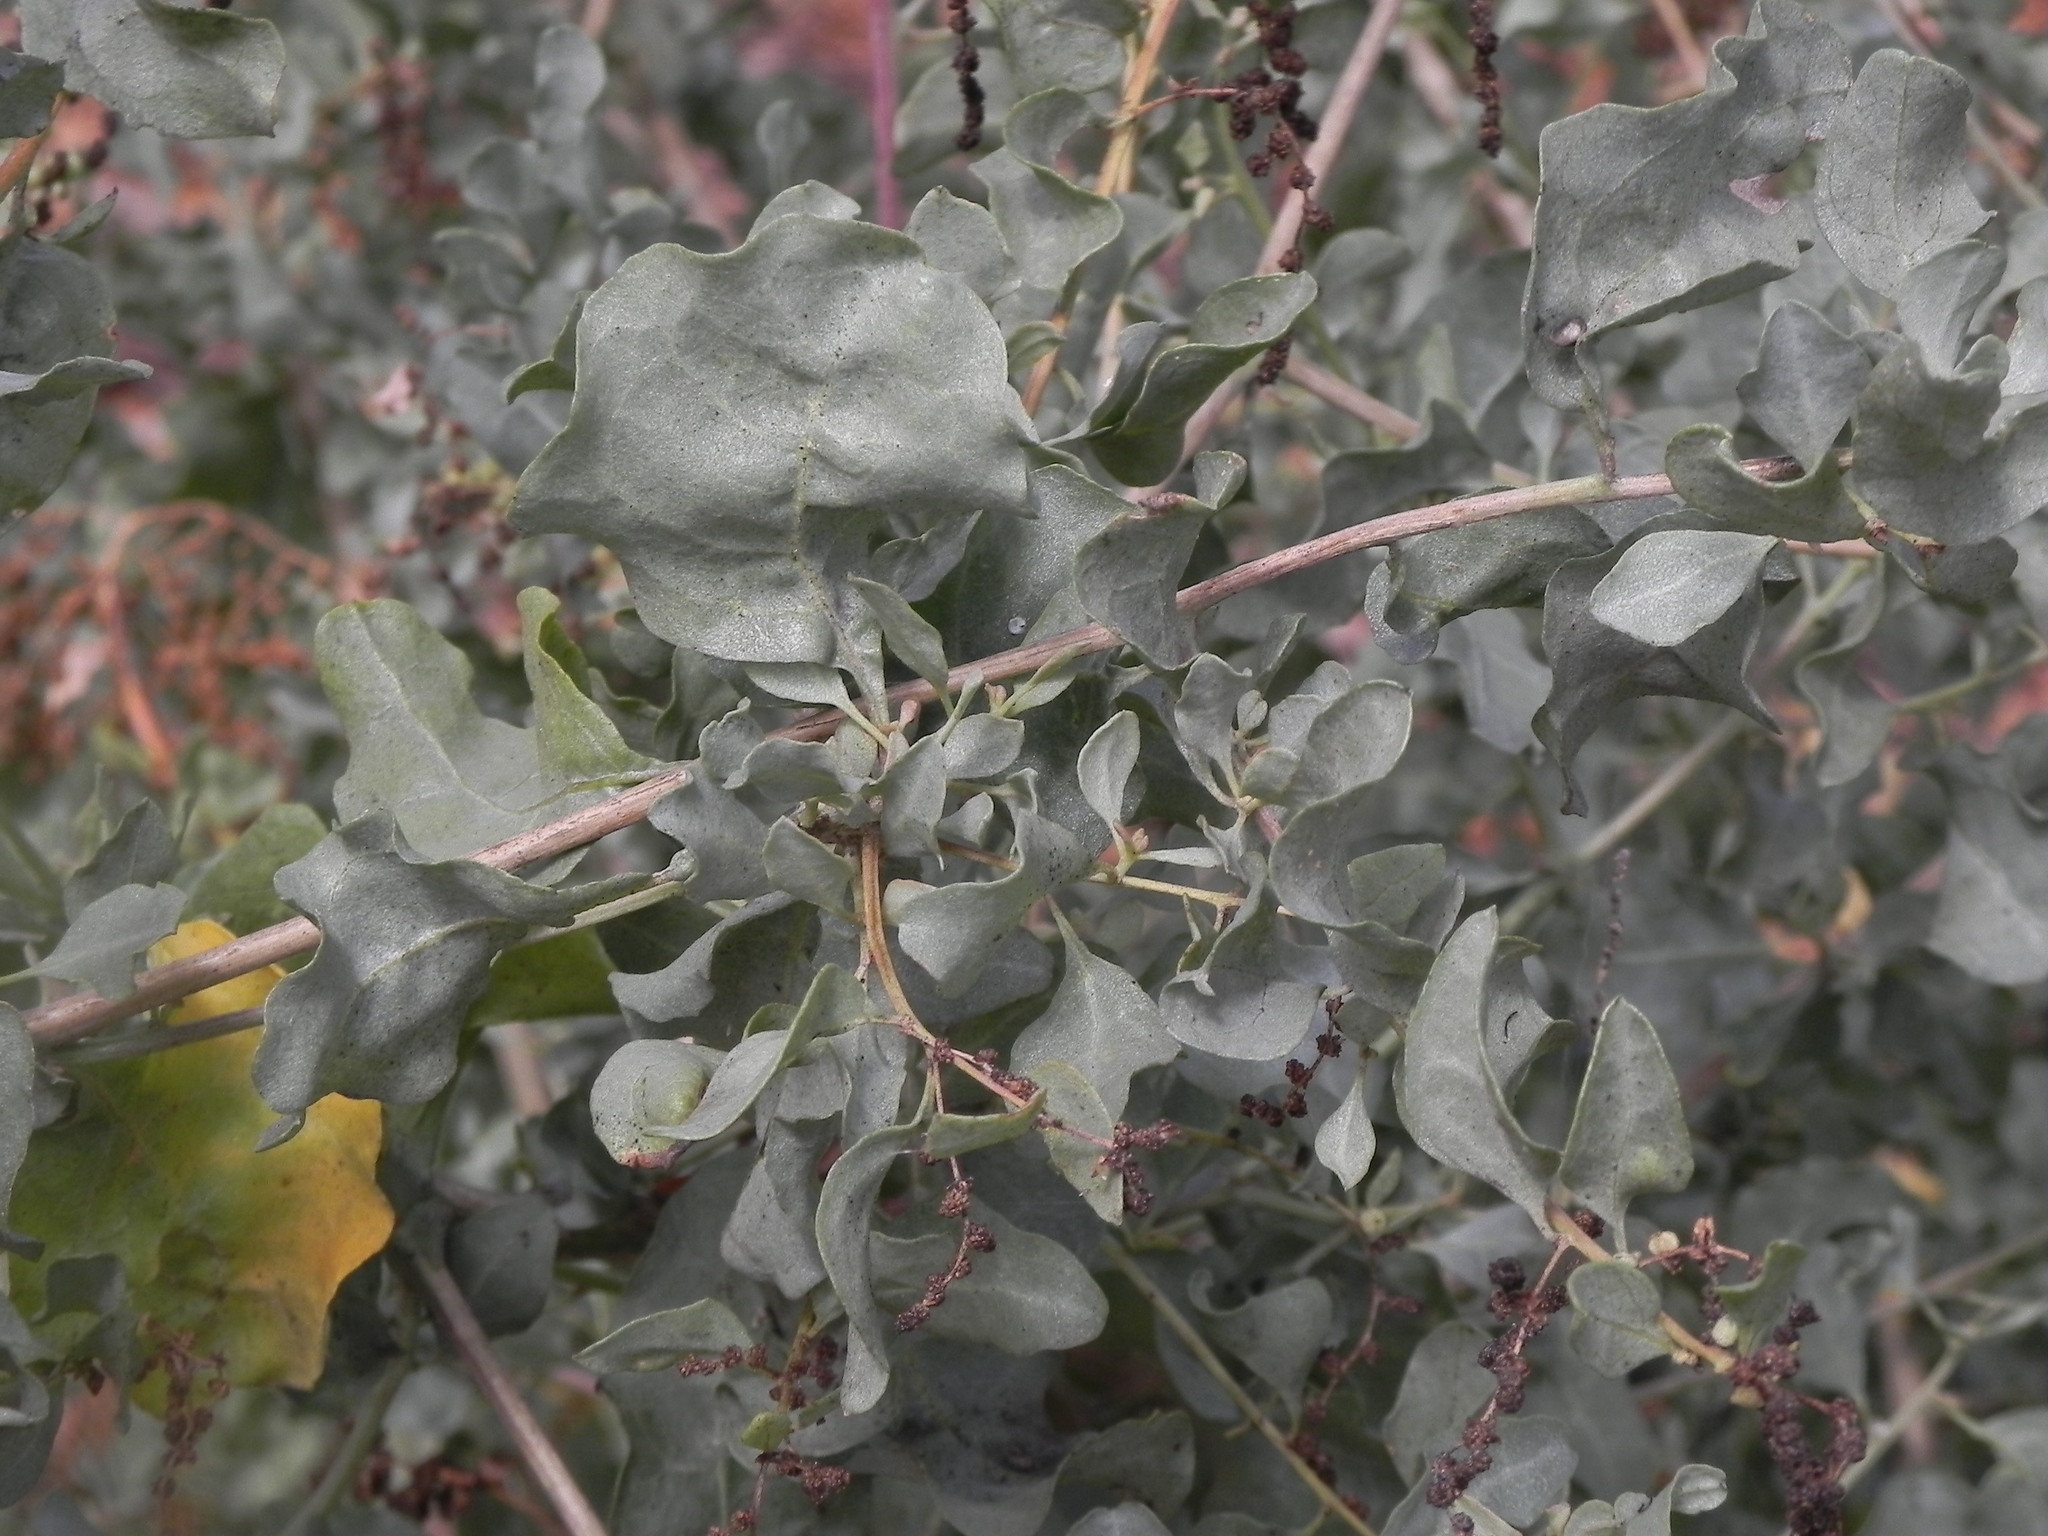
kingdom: Plantae
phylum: Tracheophyta
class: Magnoliopsida
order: Caryophyllales
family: Amaranthaceae
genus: Atriplex
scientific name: Atriplex lentiformis
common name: Big saltbush
